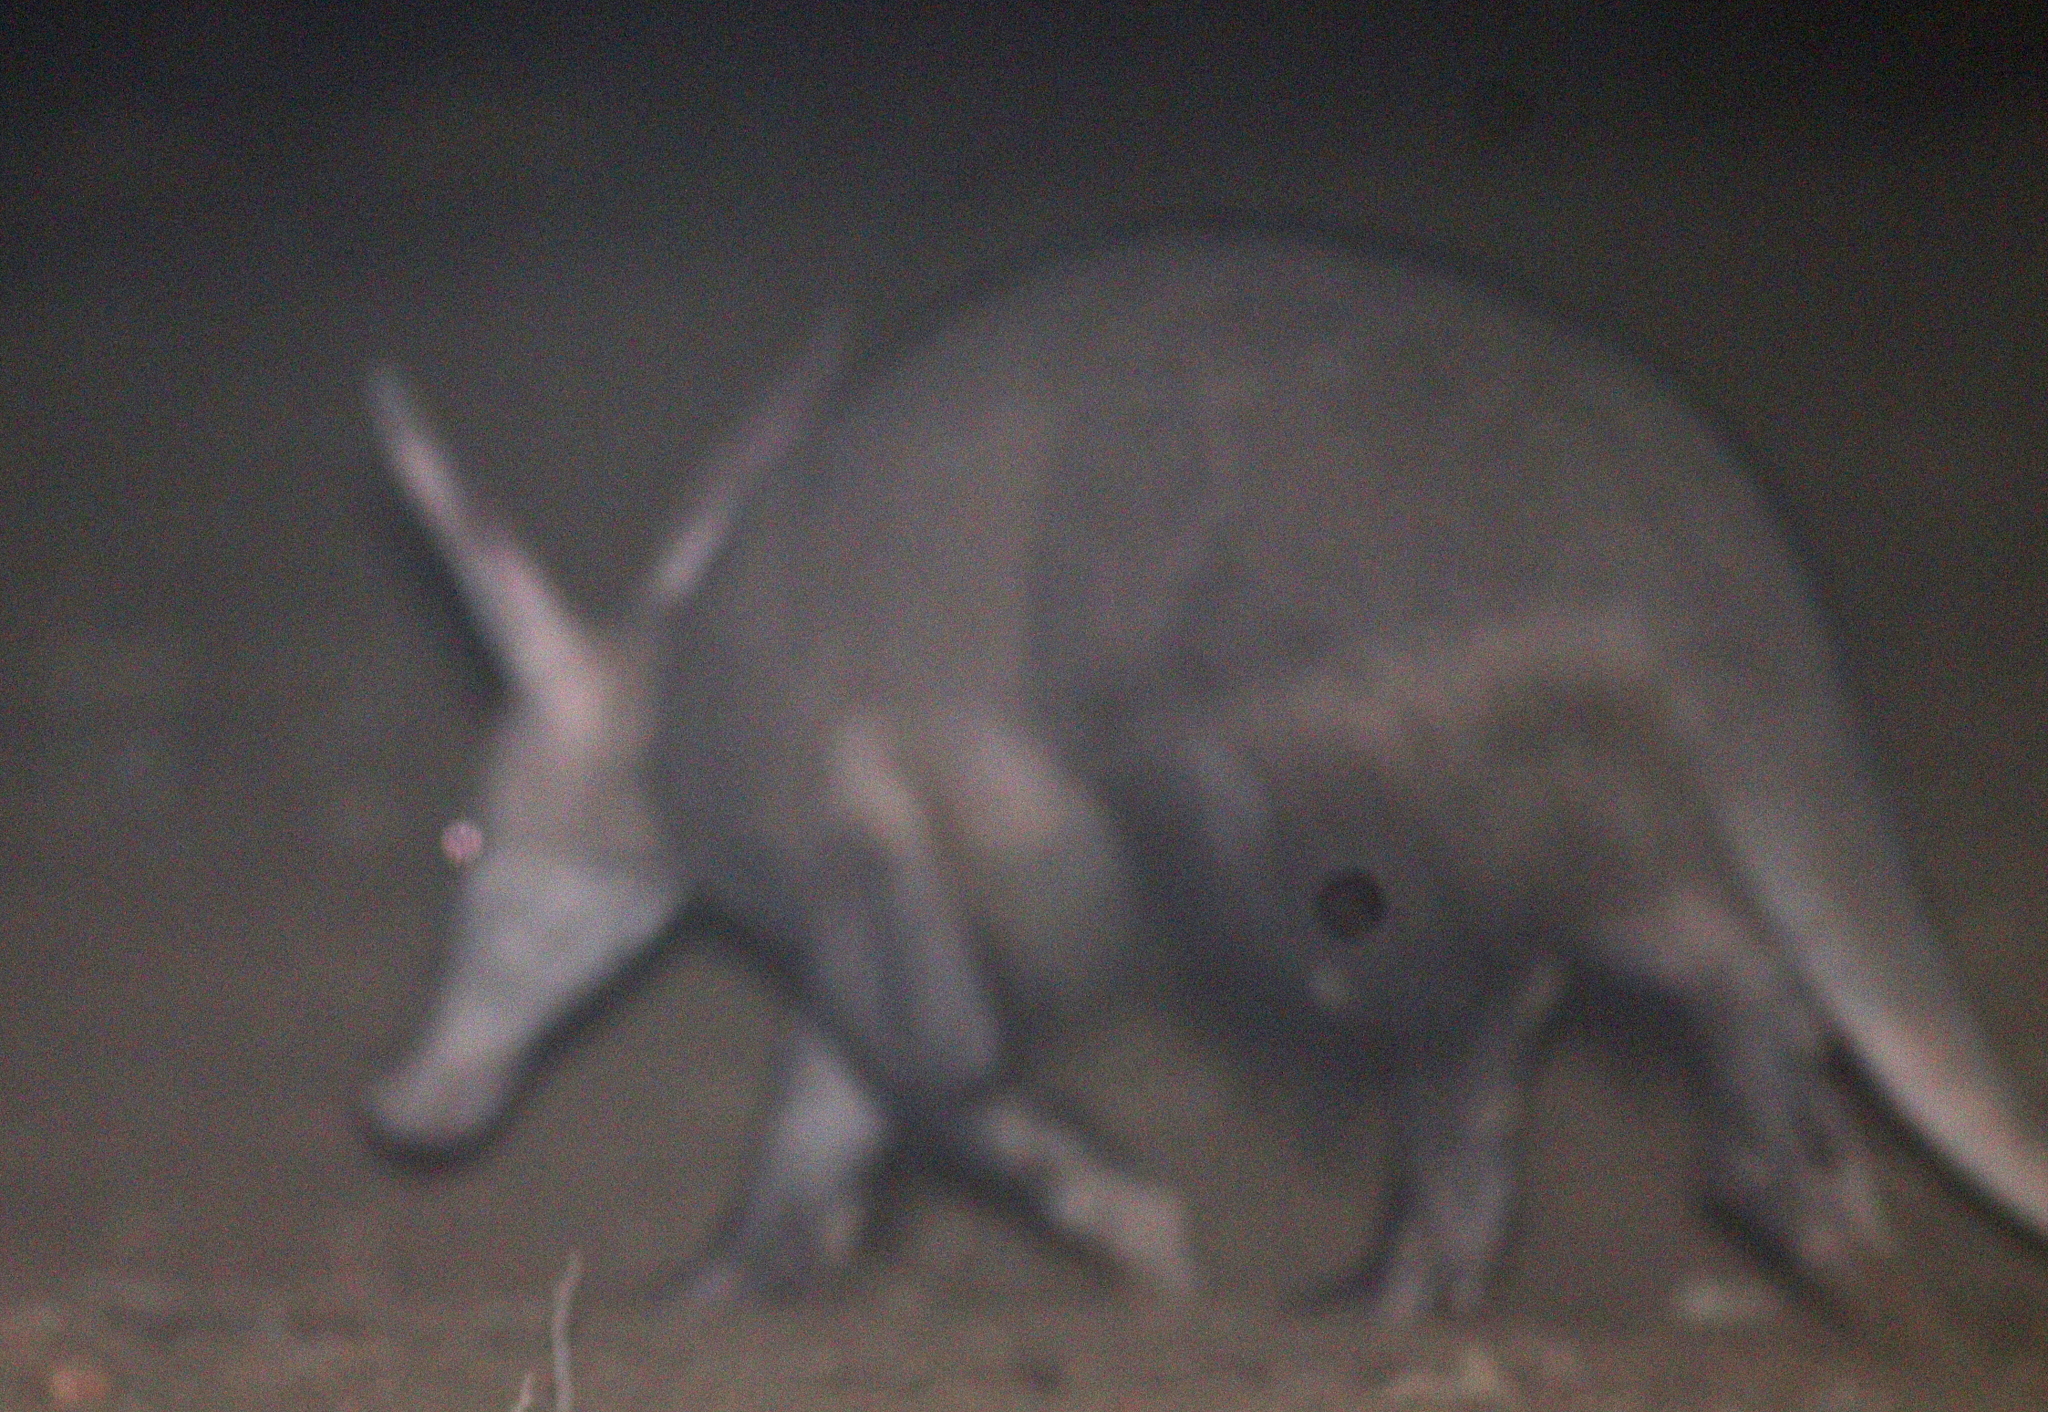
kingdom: Animalia
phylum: Chordata
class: Mammalia
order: Tubulidentata
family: Orycteropodidae
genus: Orycteropus
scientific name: Orycteropus afer
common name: Aardvark
